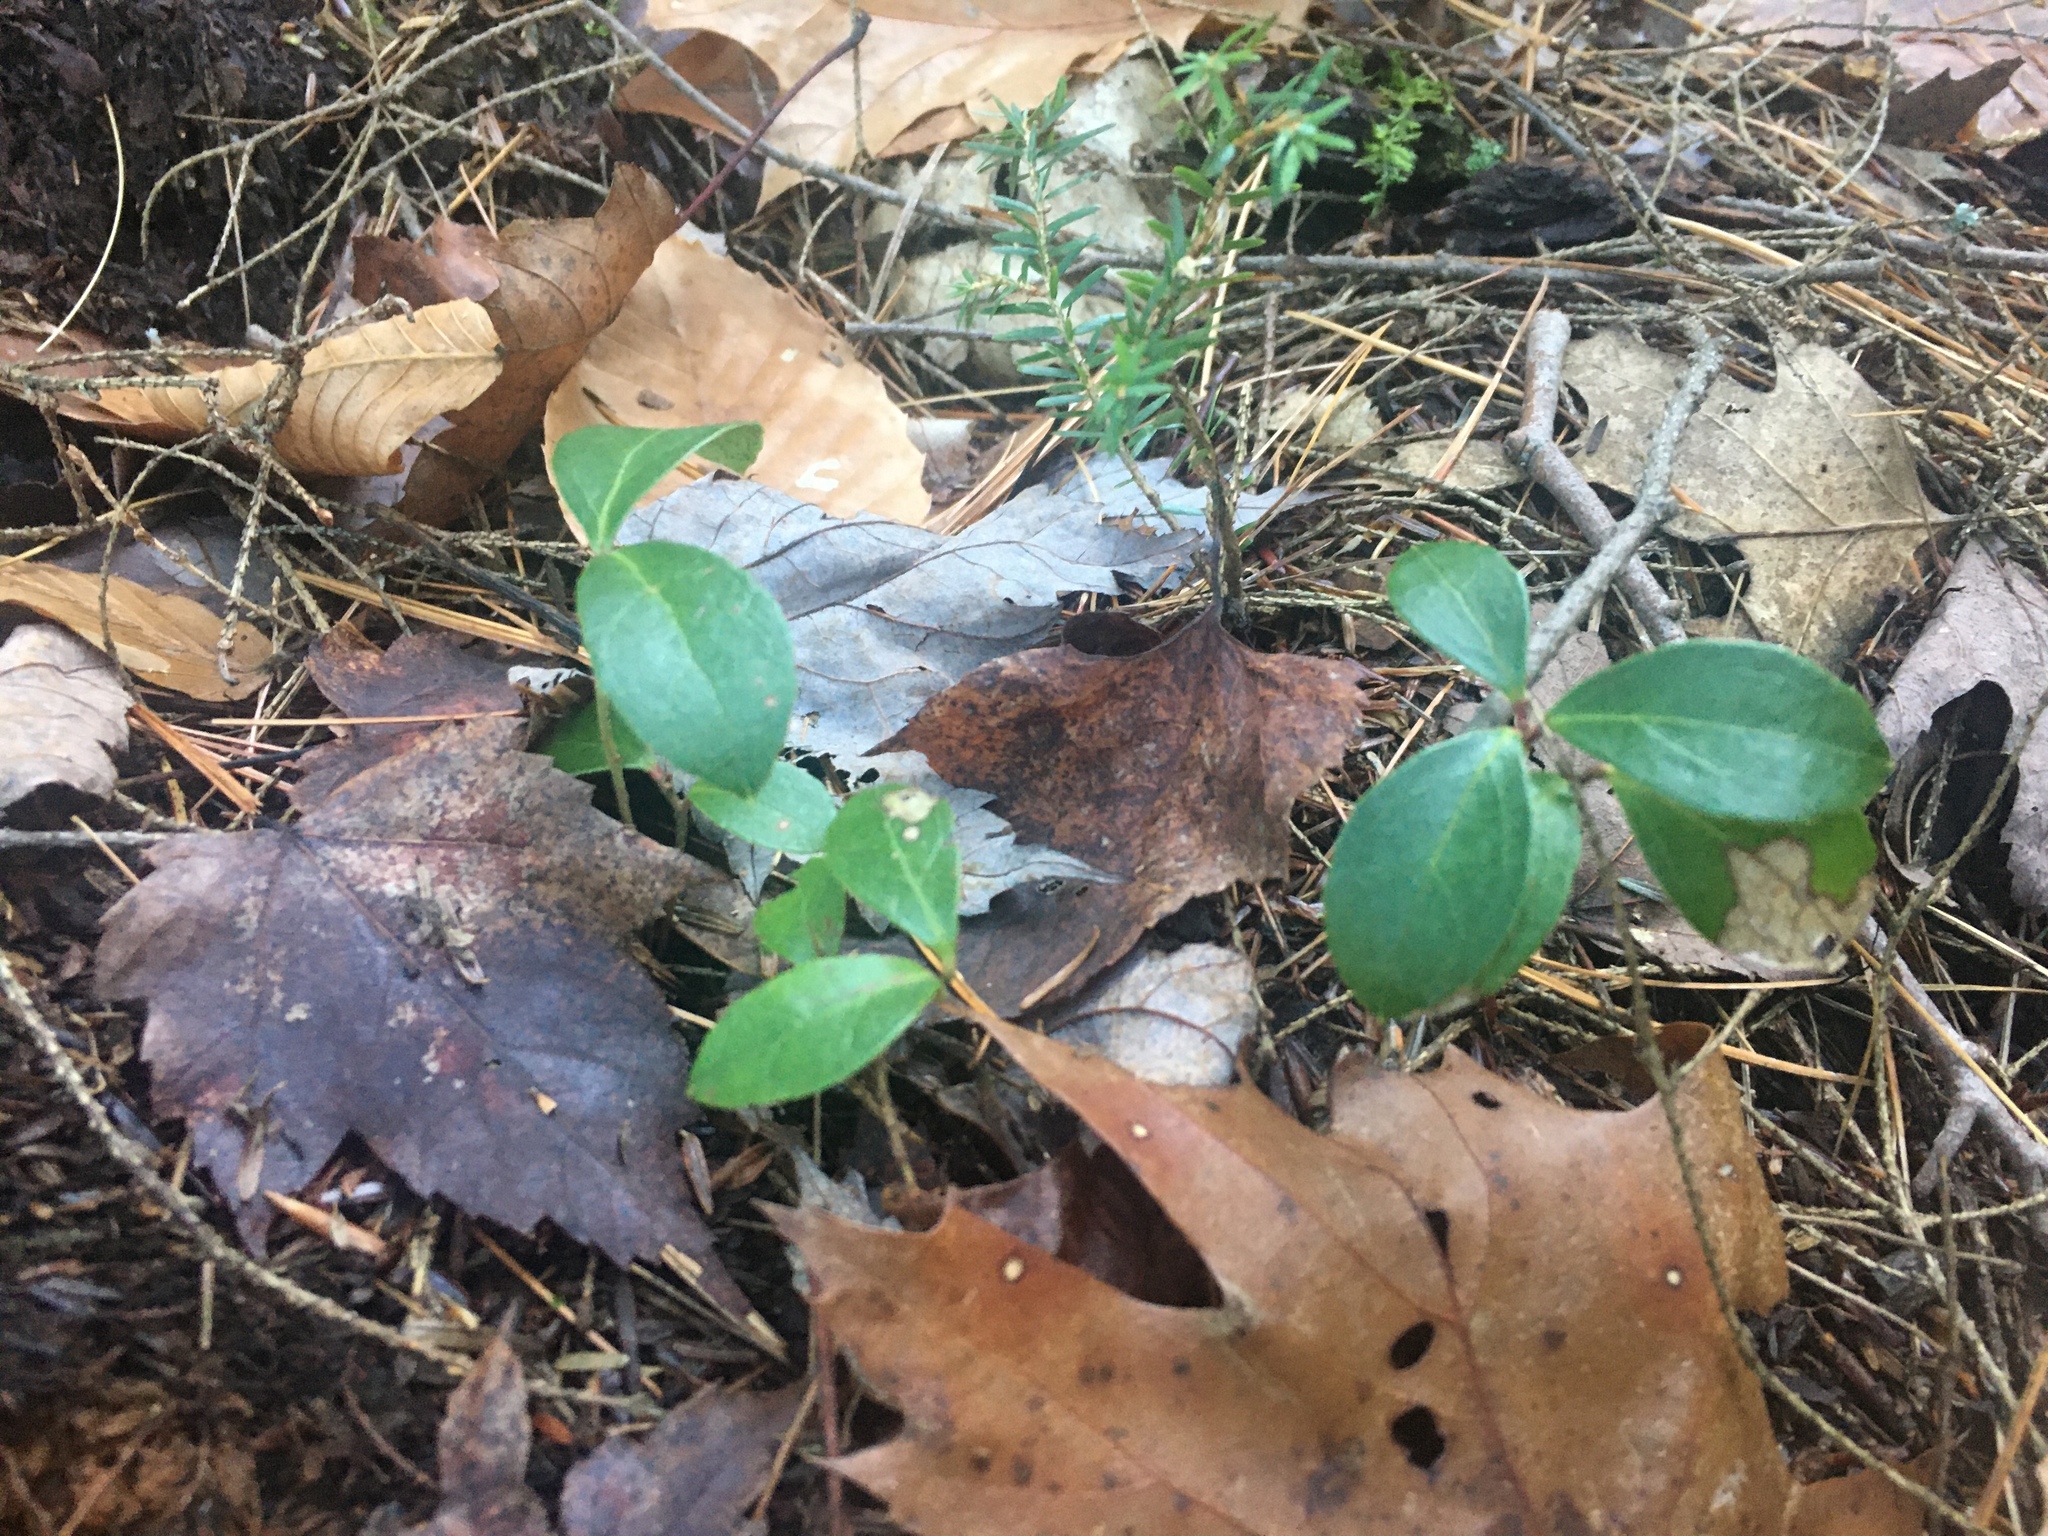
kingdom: Plantae
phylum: Tracheophyta
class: Magnoliopsida
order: Ericales
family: Ericaceae
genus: Gaultheria
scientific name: Gaultheria procumbens
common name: Checkerberry
